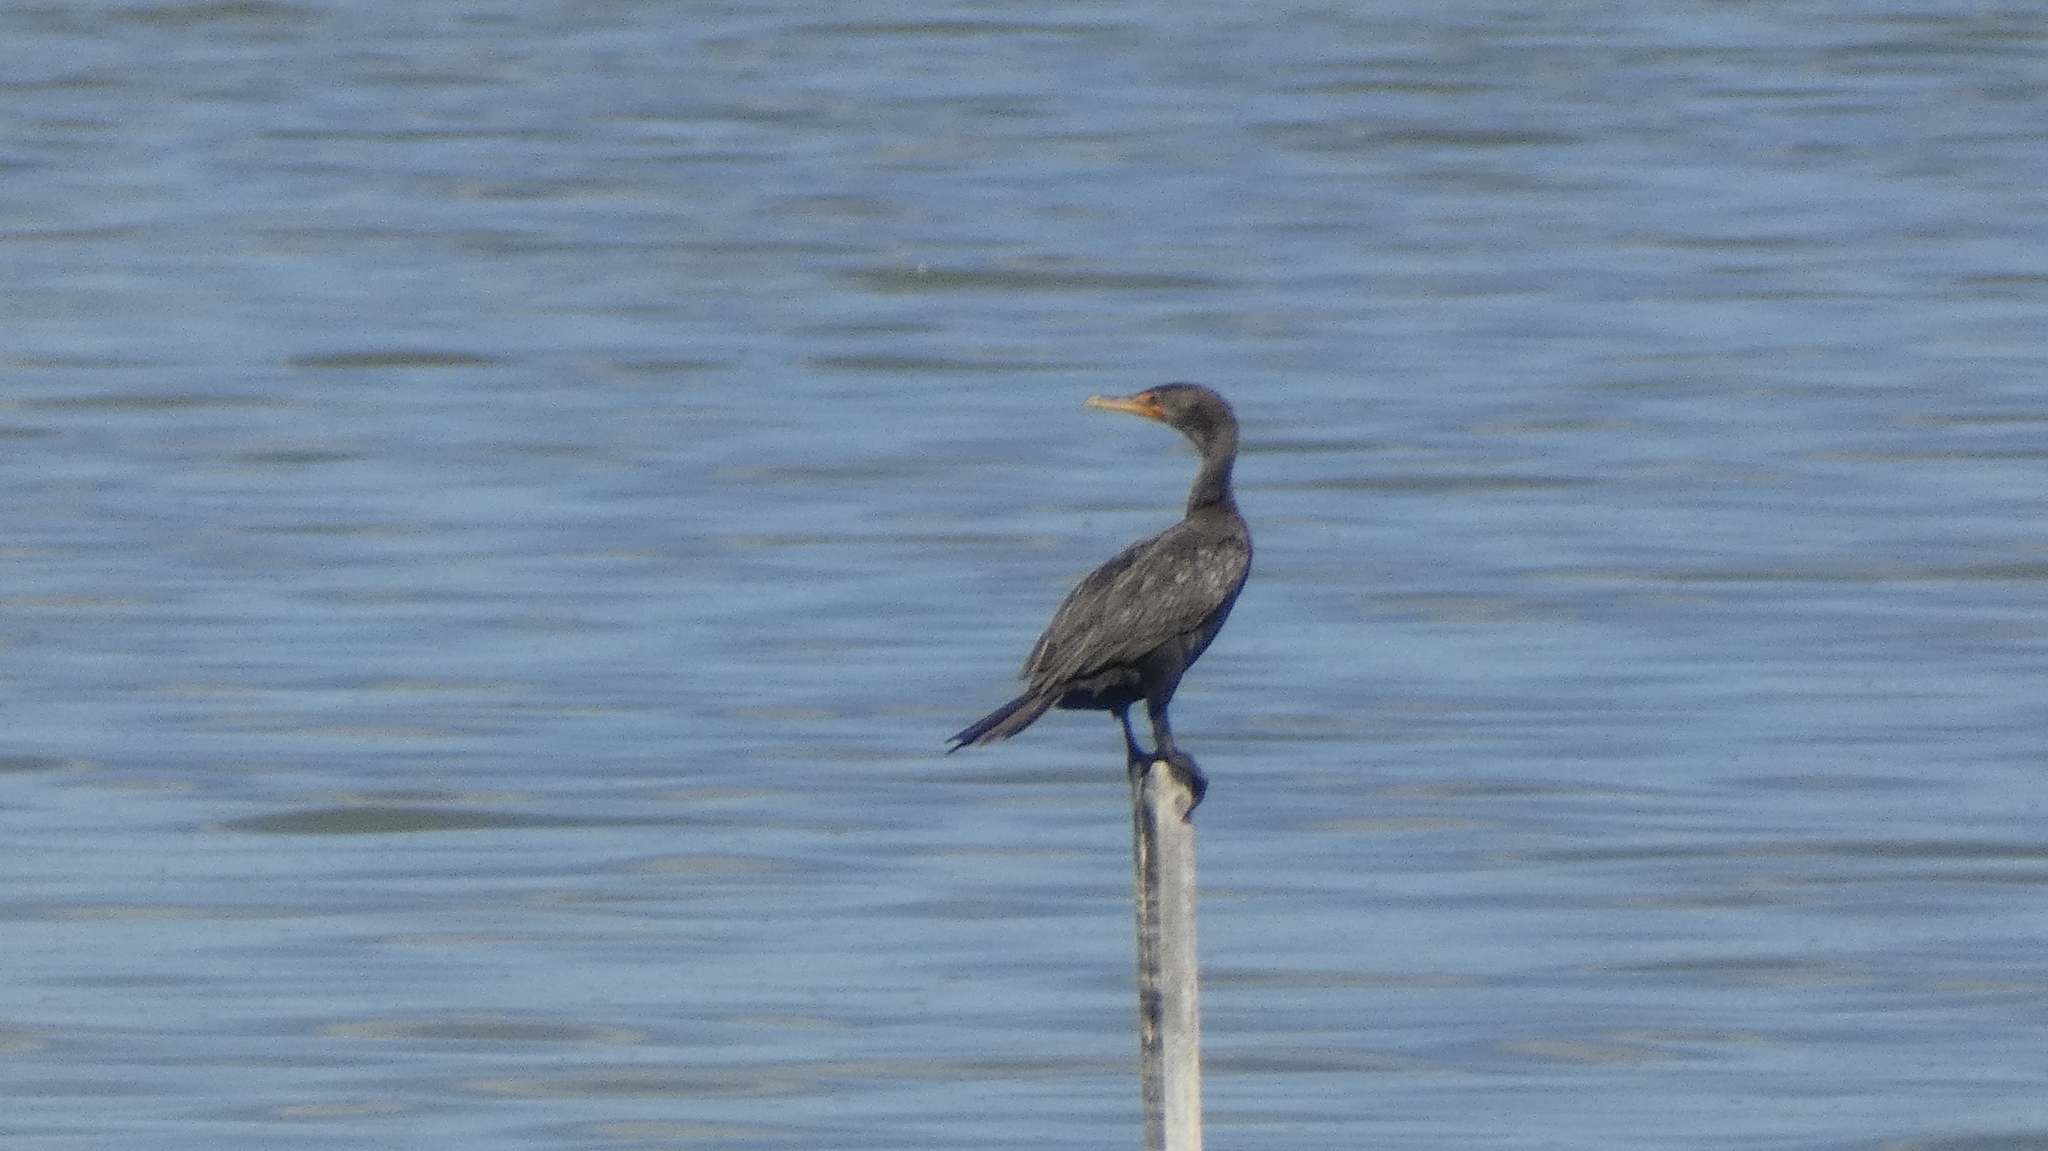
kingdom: Animalia
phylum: Chordata
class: Aves
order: Suliformes
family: Phalacrocoracidae
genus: Phalacrocorax
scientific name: Phalacrocorax auritus
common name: Double-crested cormorant
